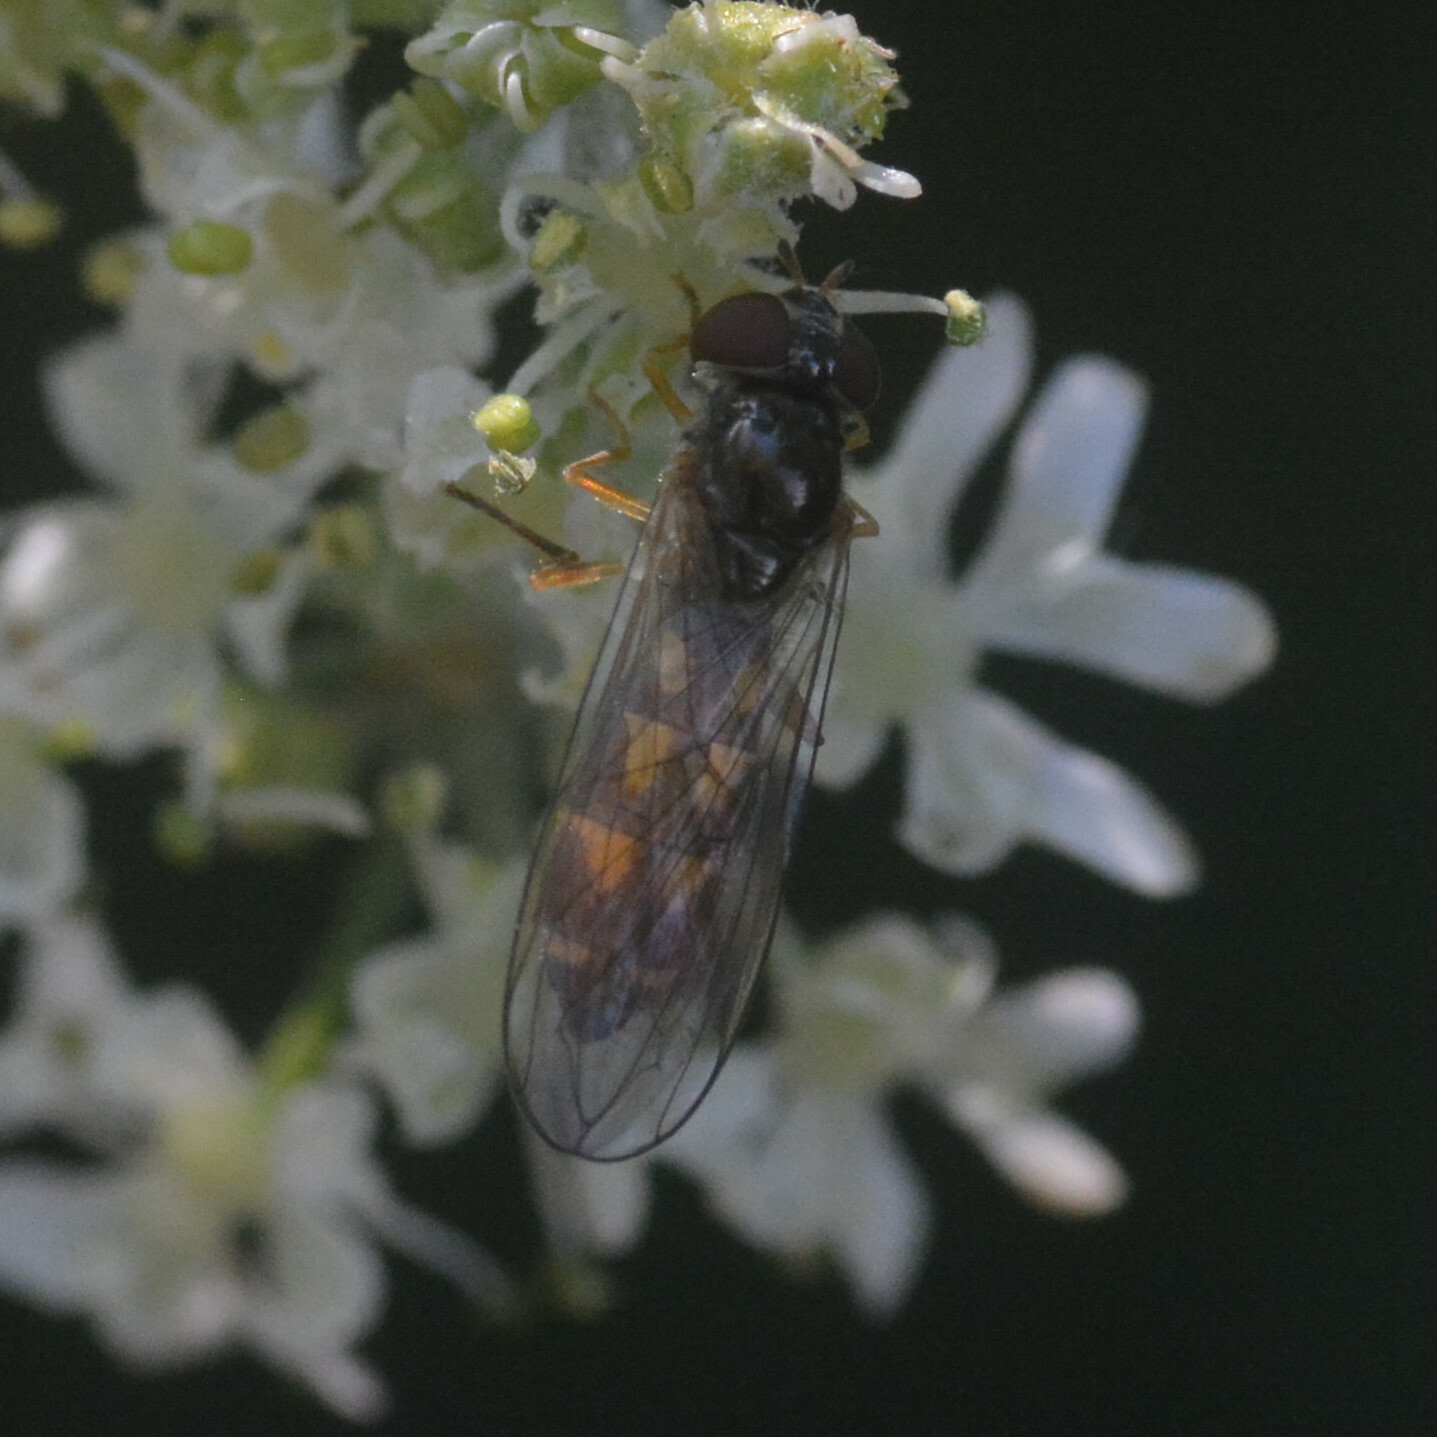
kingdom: Animalia
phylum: Arthropoda
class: Insecta
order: Diptera
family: Syrphidae
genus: Melanostoma
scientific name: Melanostoma scalare
